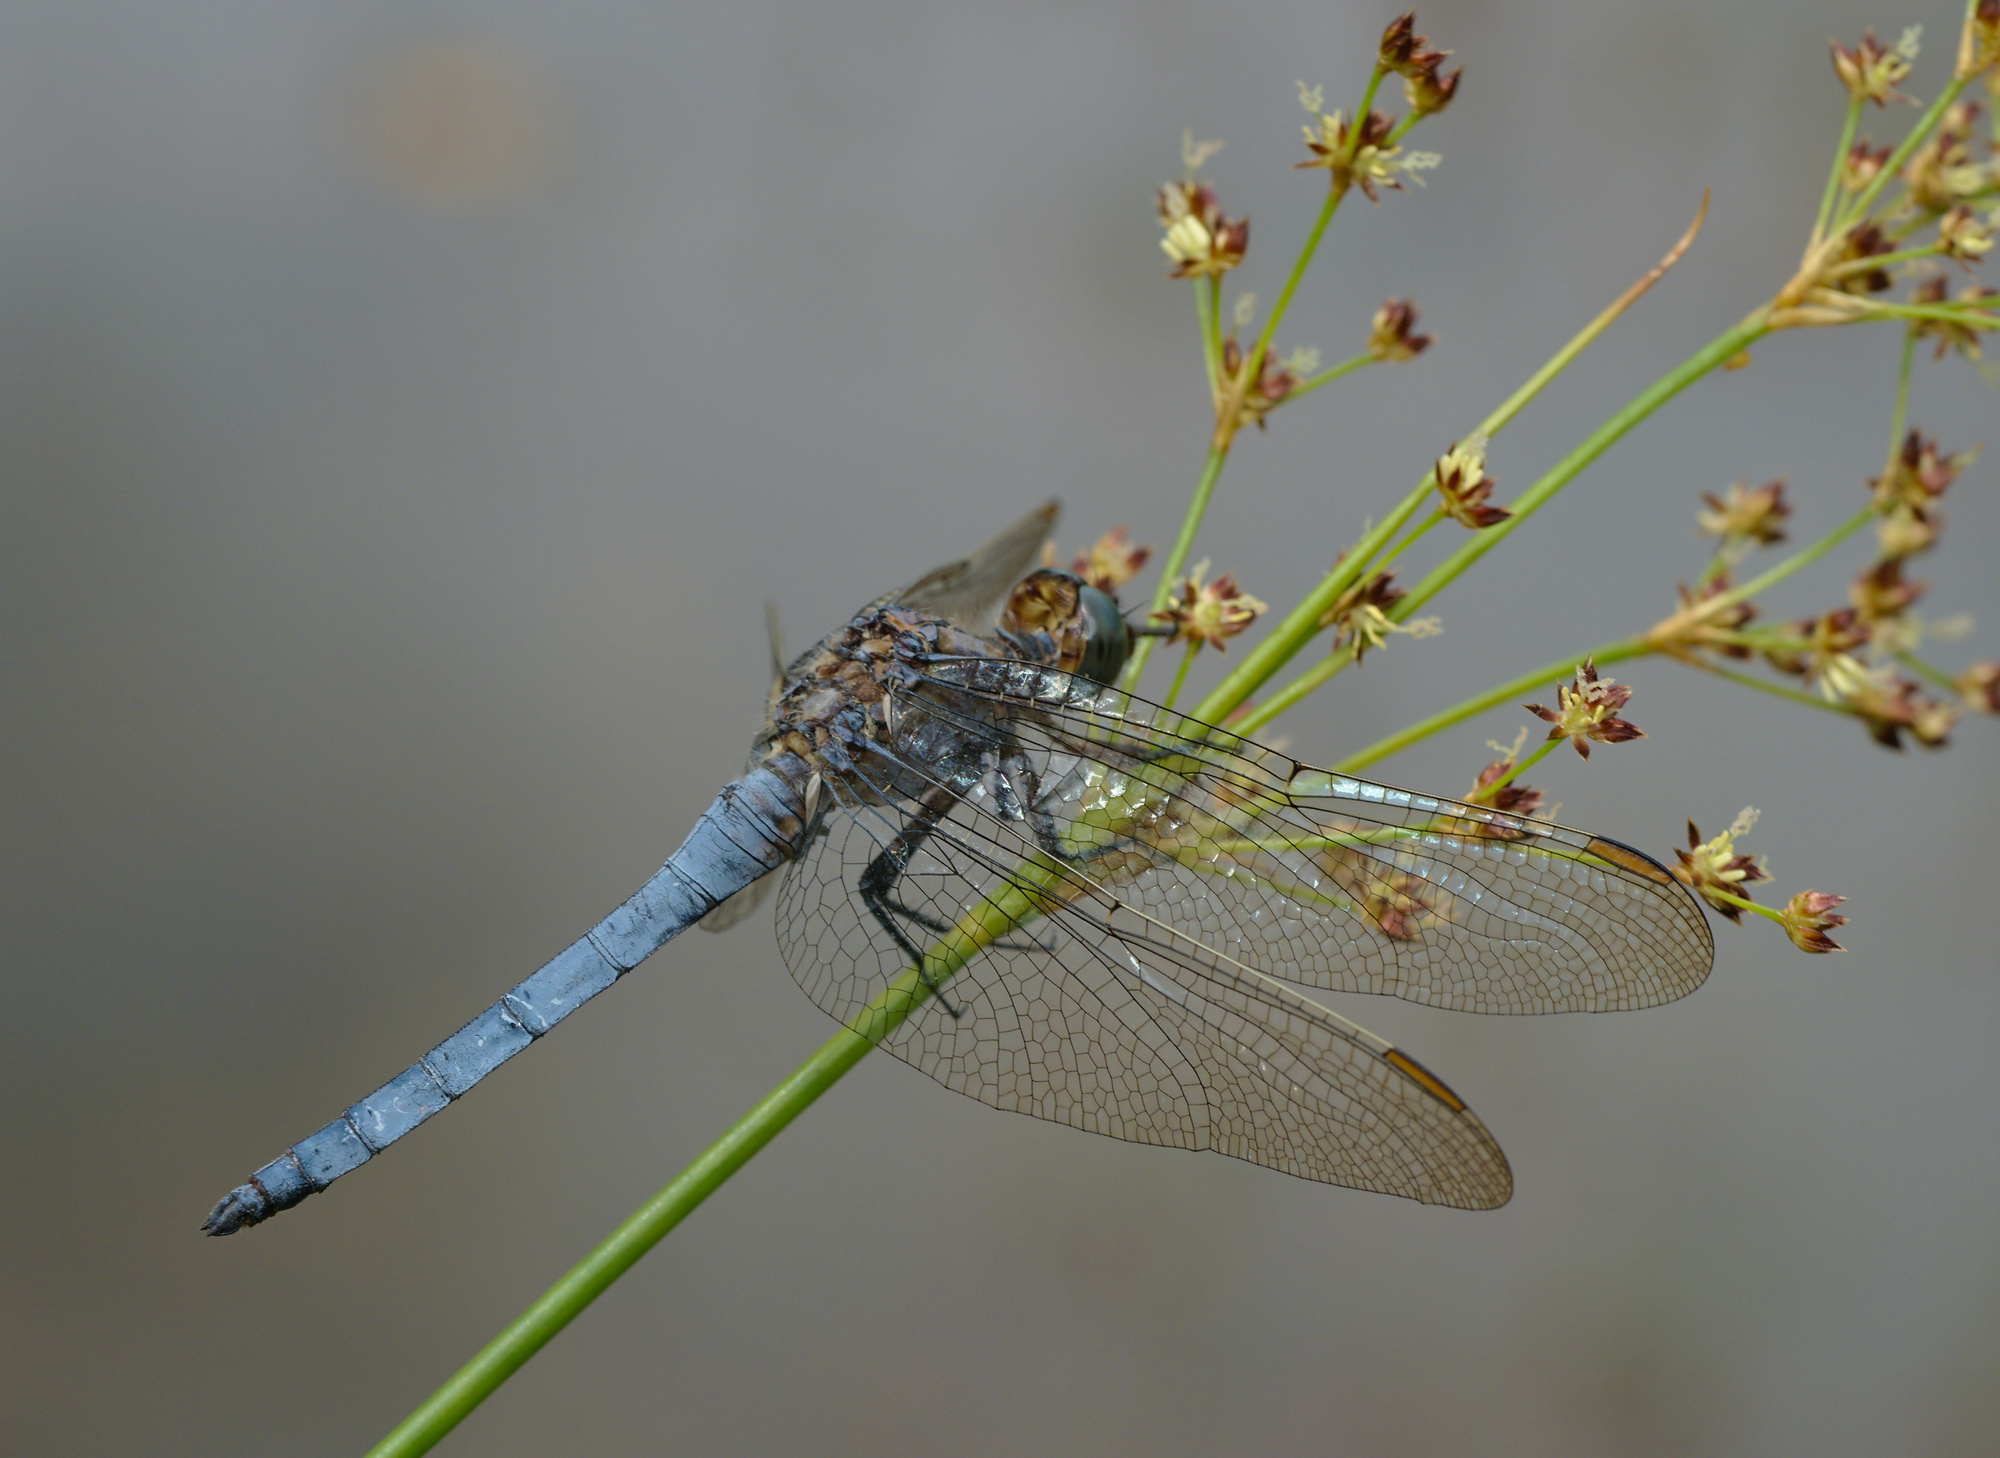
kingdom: Animalia
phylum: Arthropoda
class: Insecta
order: Odonata
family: Libellulidae
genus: Orthetrum
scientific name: Orthetrum coerulescens
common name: Keeled skimmer
